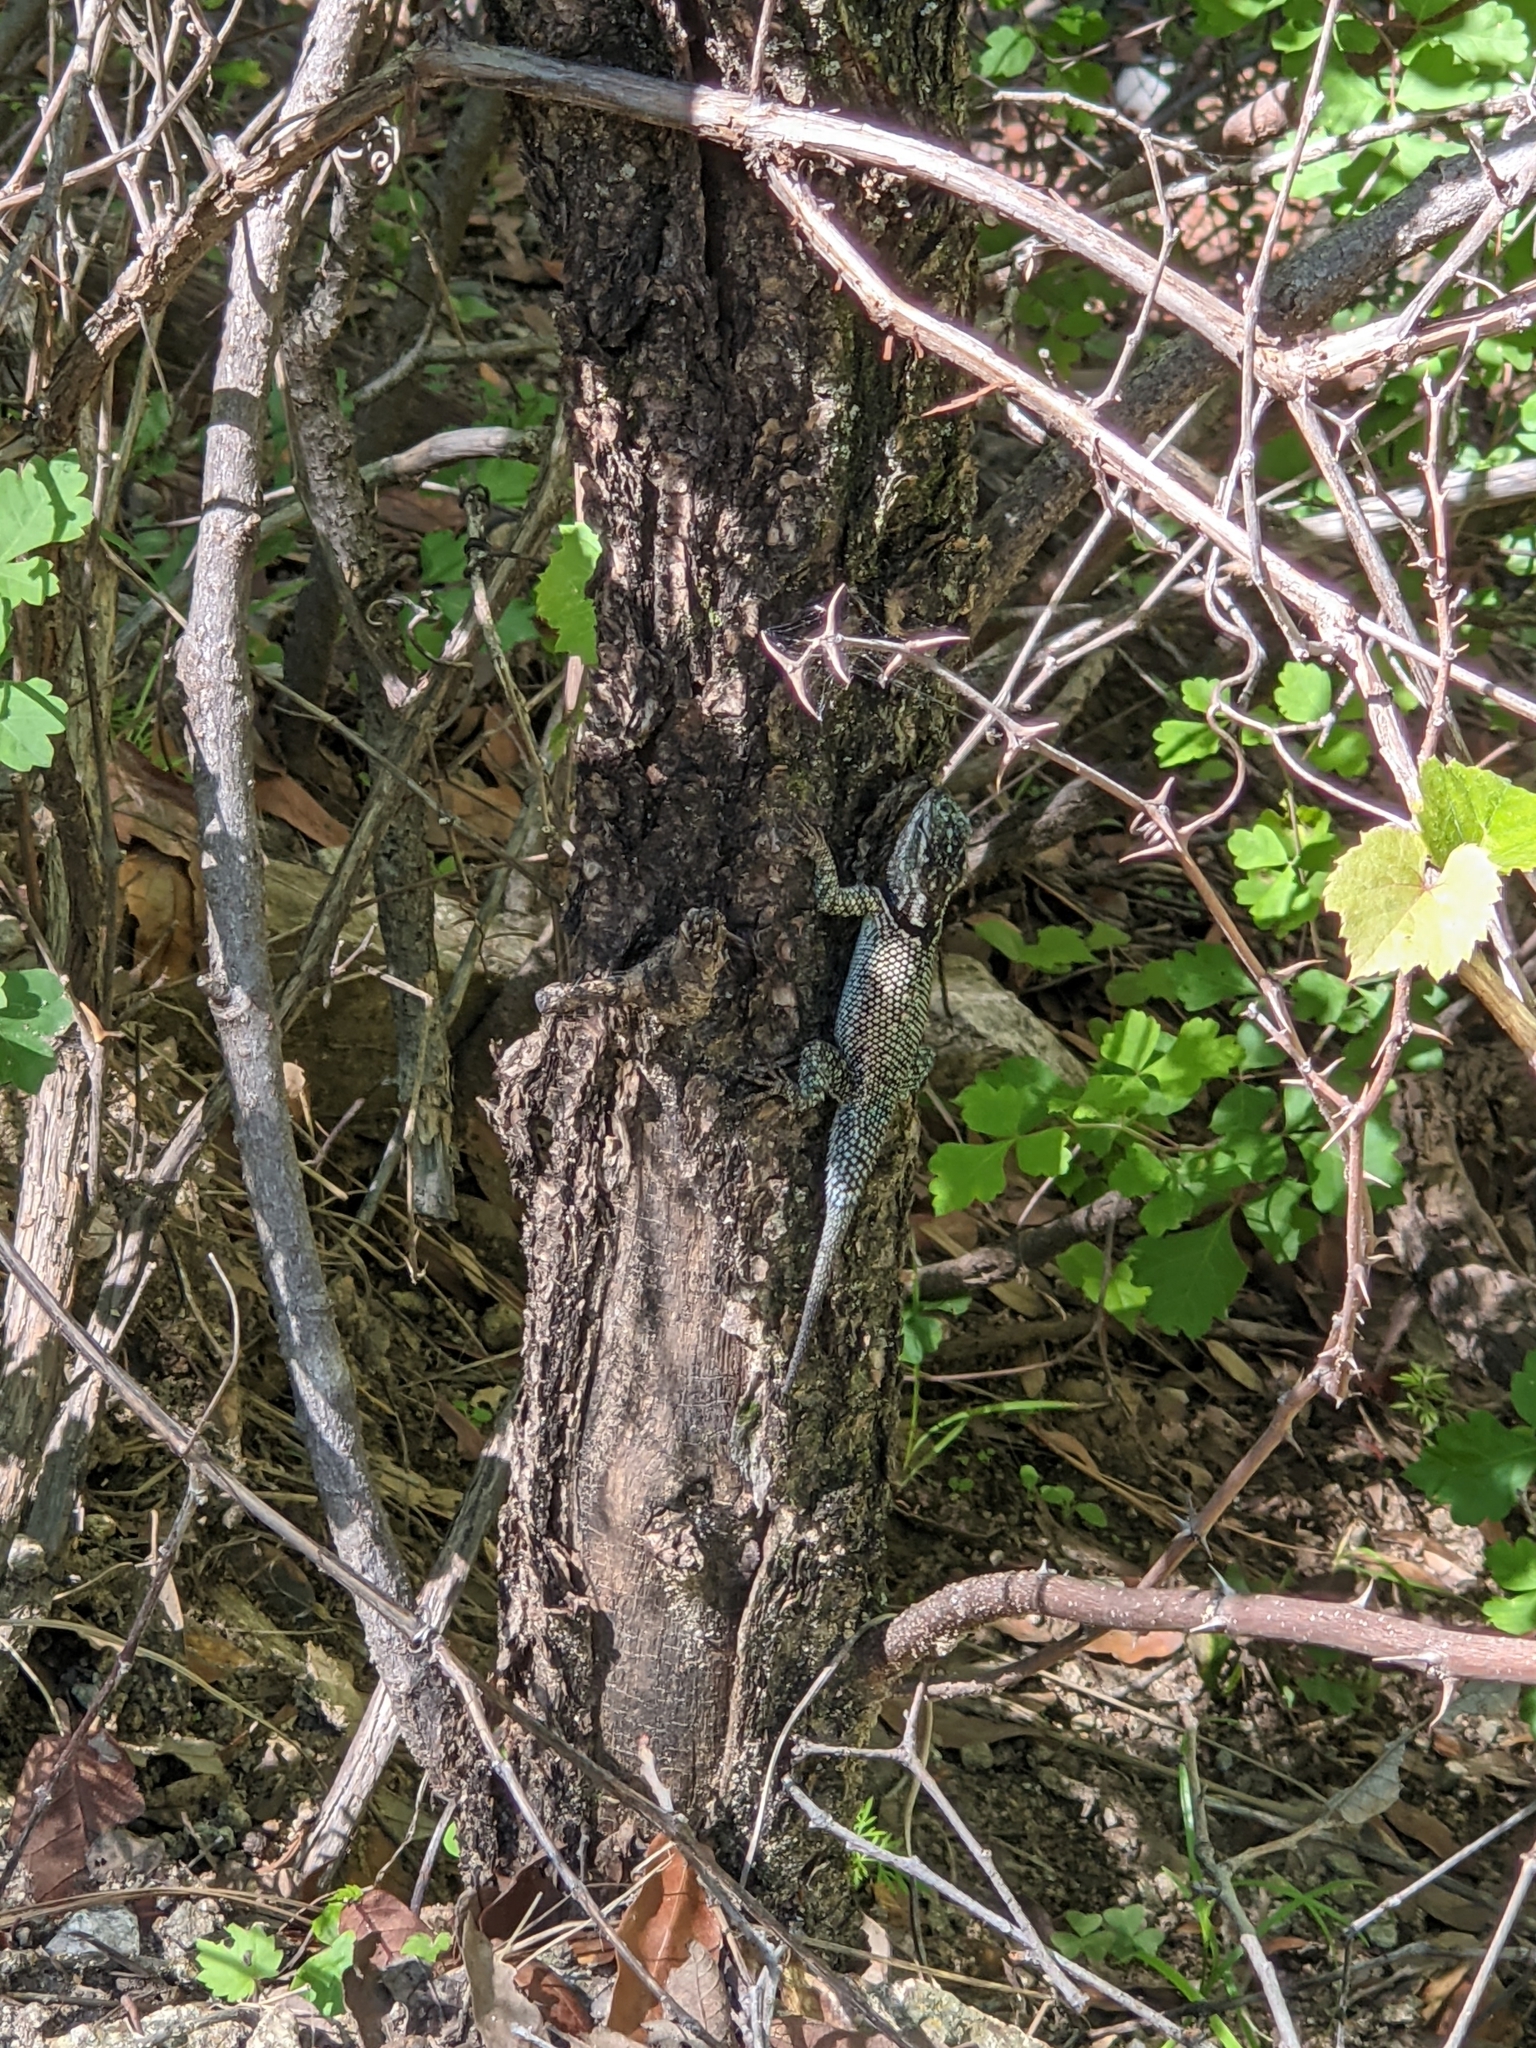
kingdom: Animalia
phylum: Chordata
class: Squamata
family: Phrynosomatidae
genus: Sceloporus
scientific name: Sceloporus jarrovii
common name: Yarrow's spiny lizard
